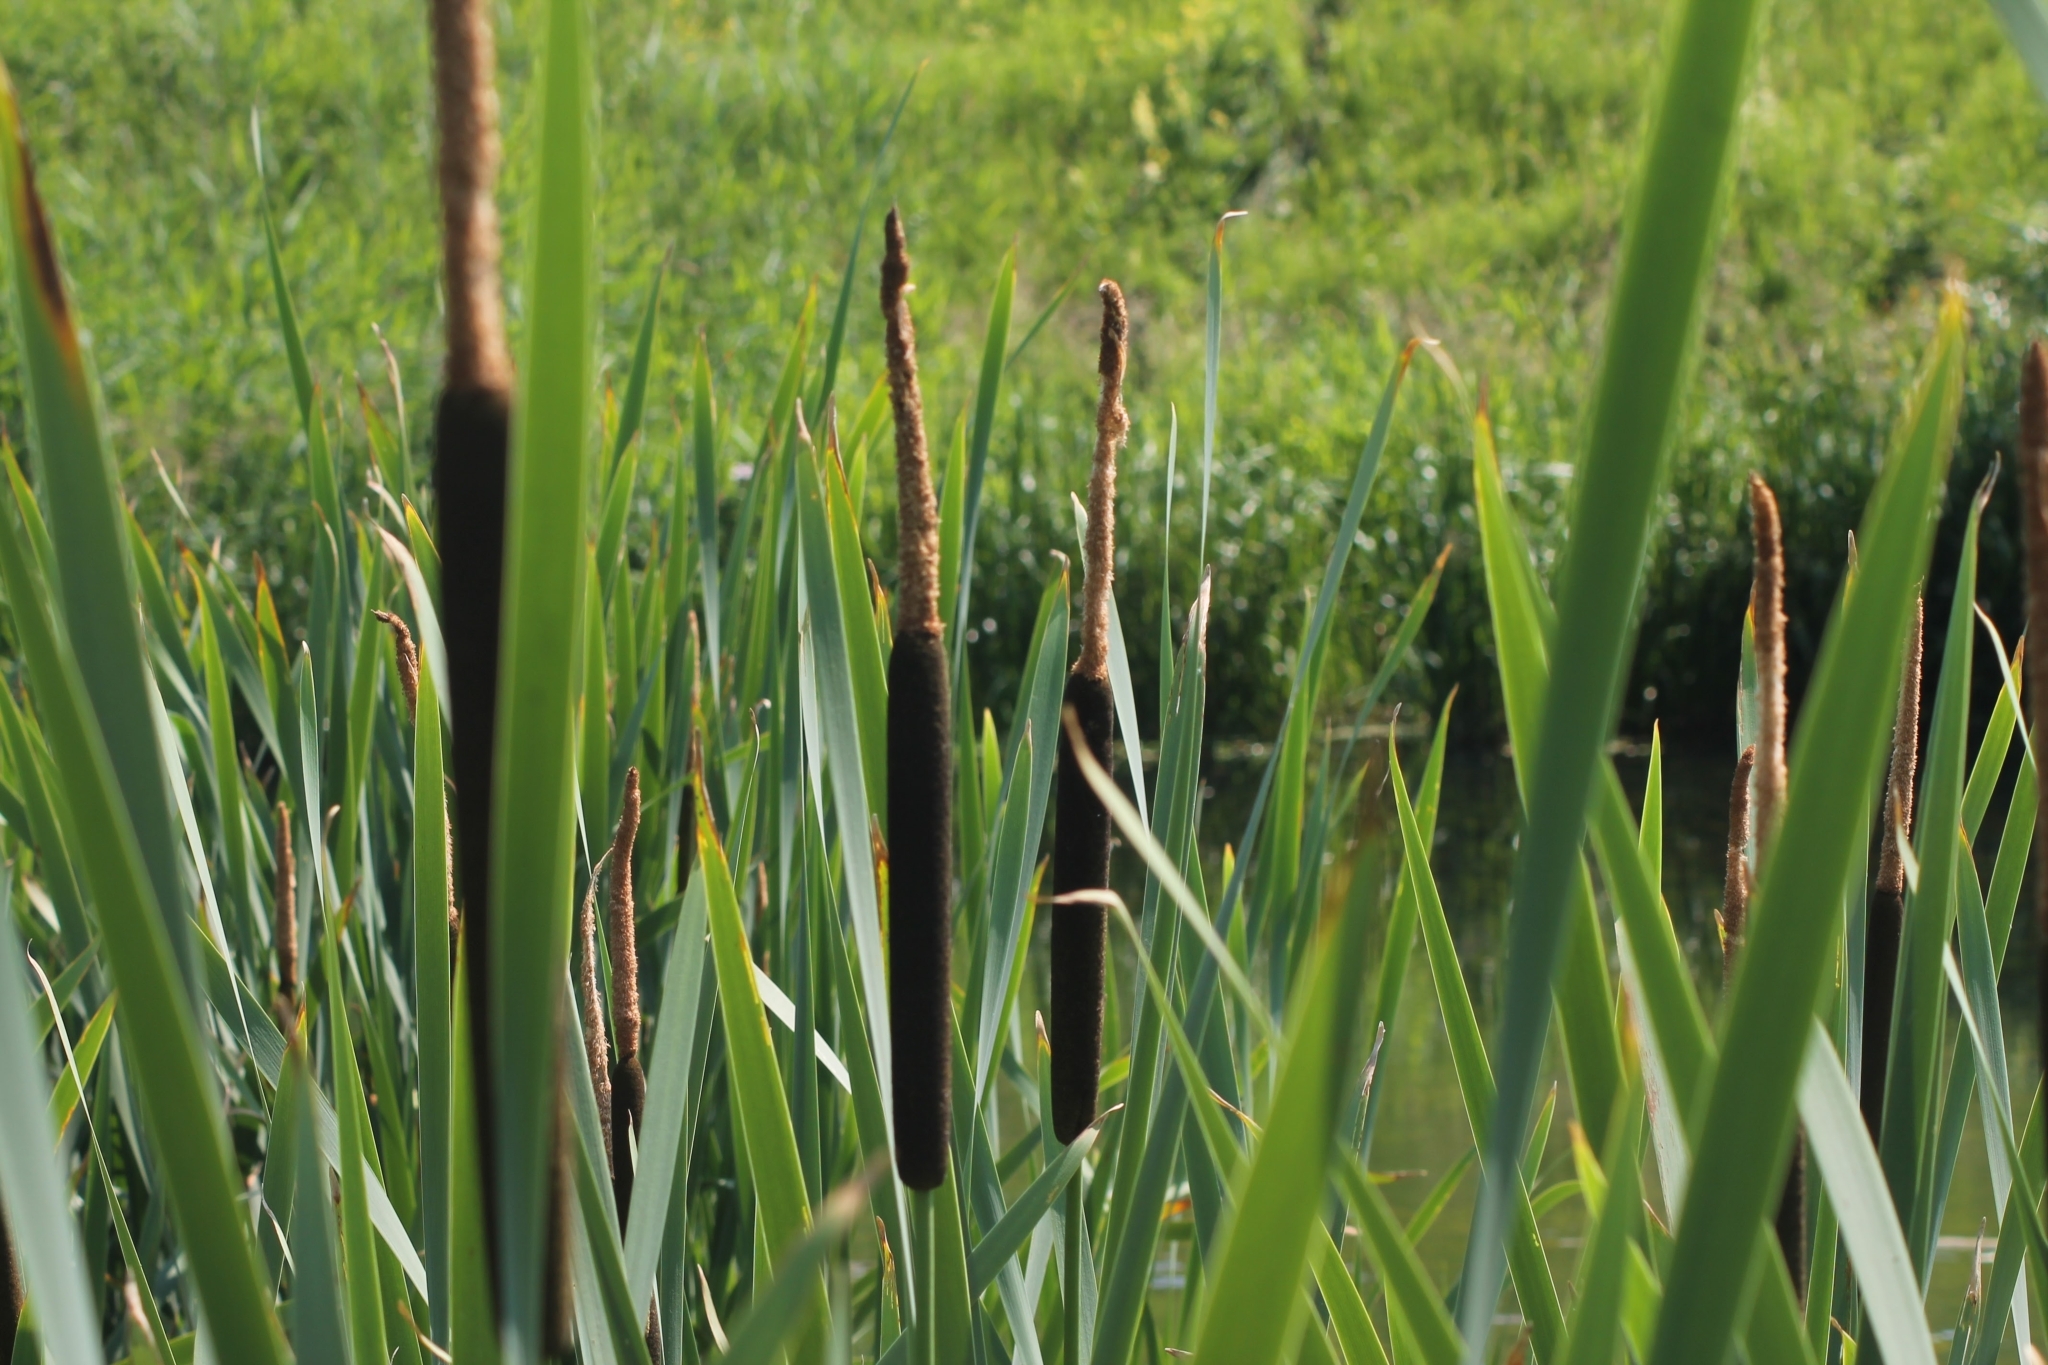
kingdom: Plantae
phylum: Tracheophyta
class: Liliopsida
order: Poales
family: Typhaceae
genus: Typha
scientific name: Typha latifolia
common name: Broadleaf cattail
